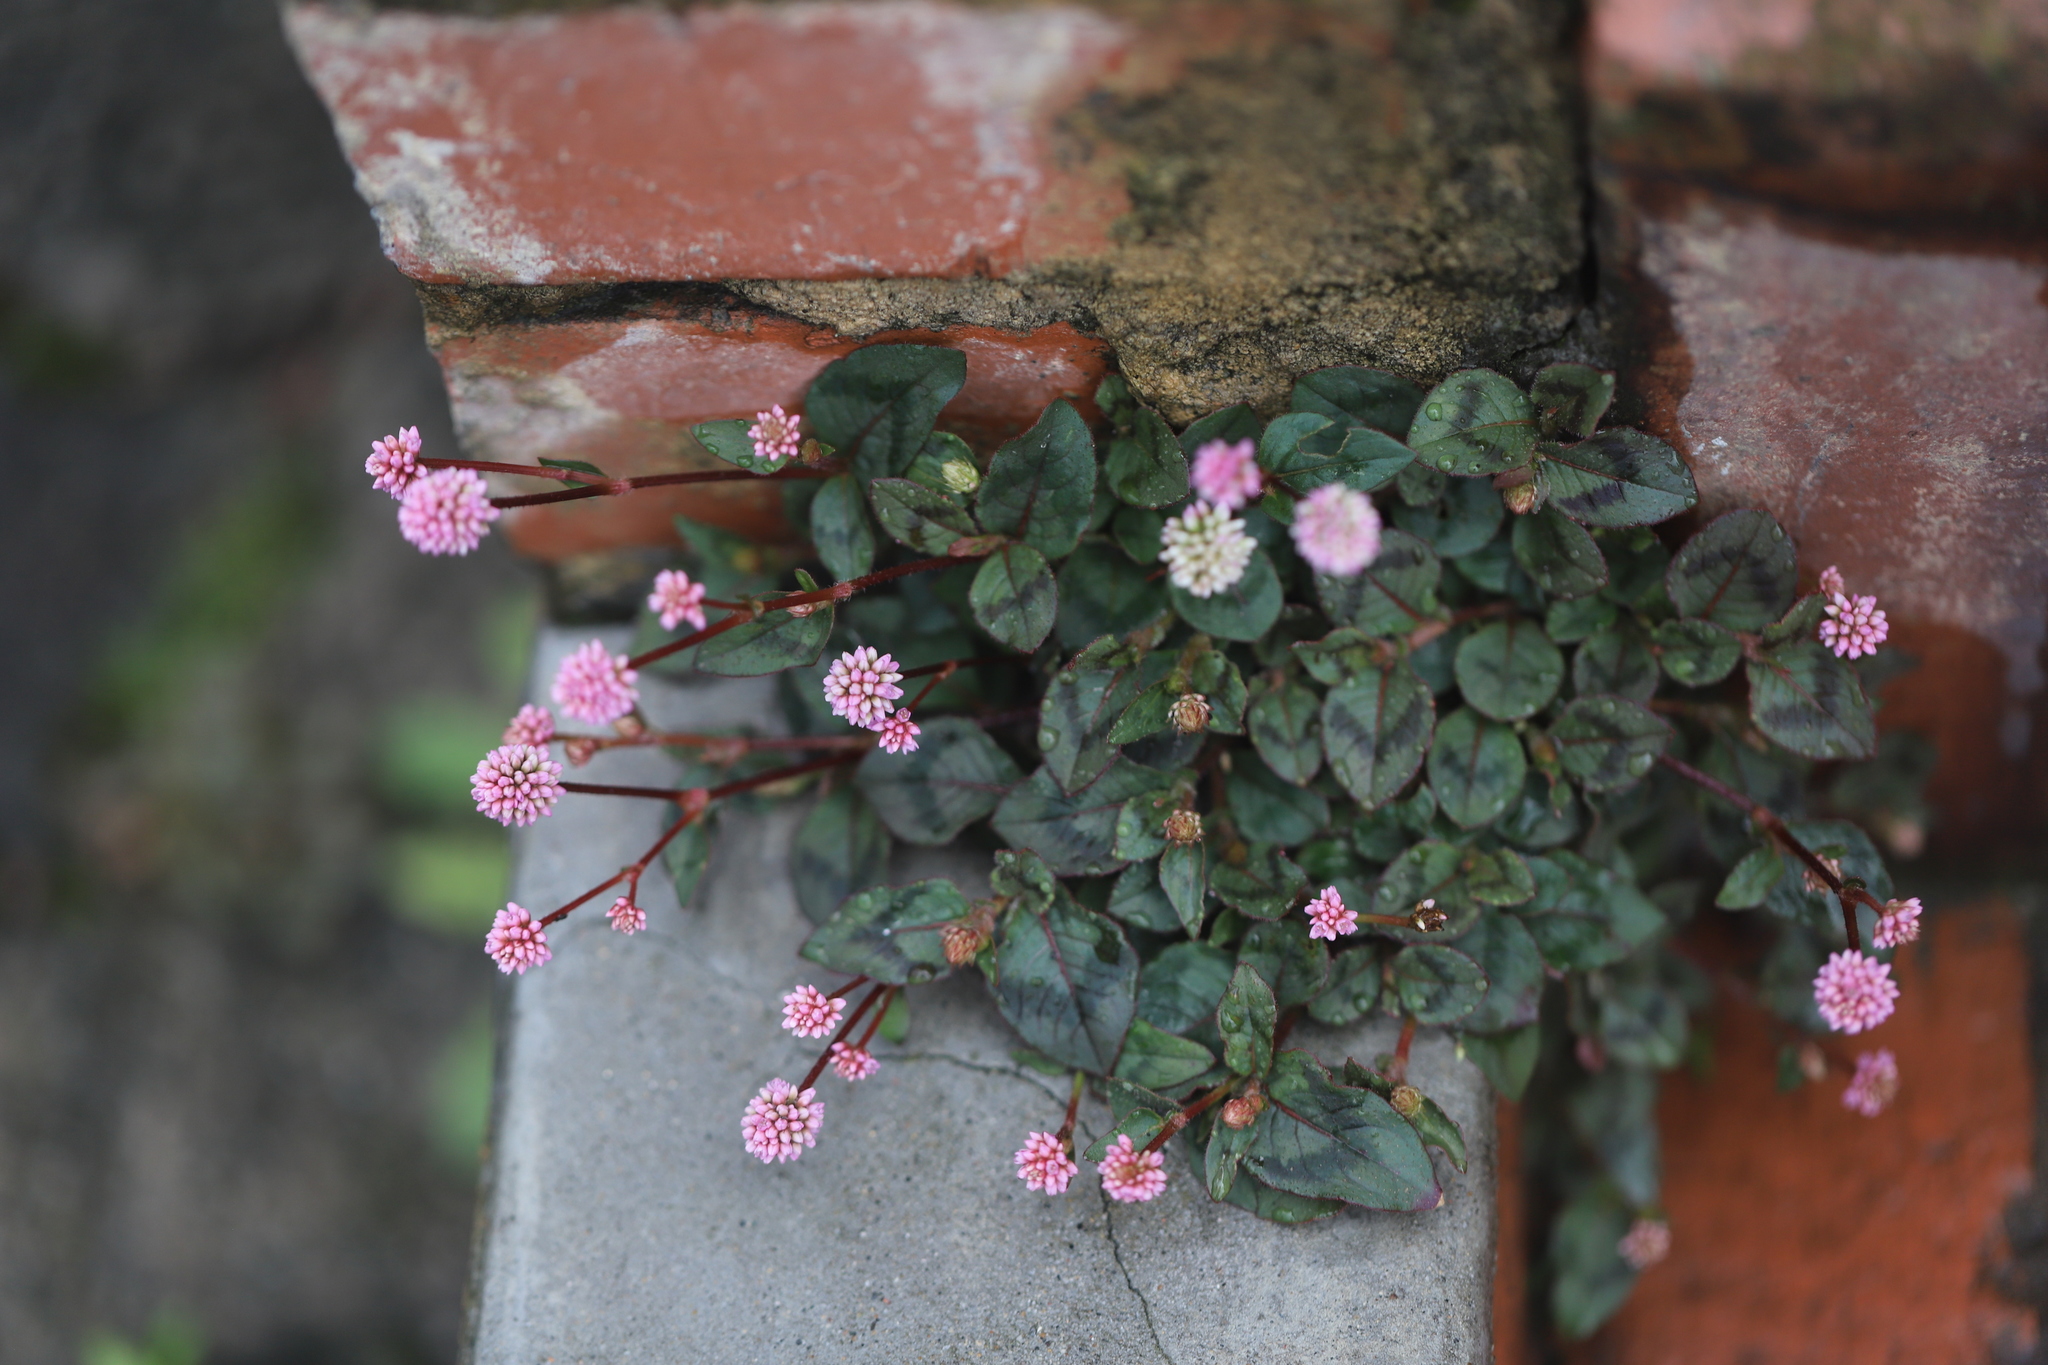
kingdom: Plantae
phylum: Tracheophyta
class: Magnoliopsida
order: Caryophyllales
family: Polygonaceae
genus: Persicaria
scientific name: Persicaria capitata
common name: Pinkhead smartweed
